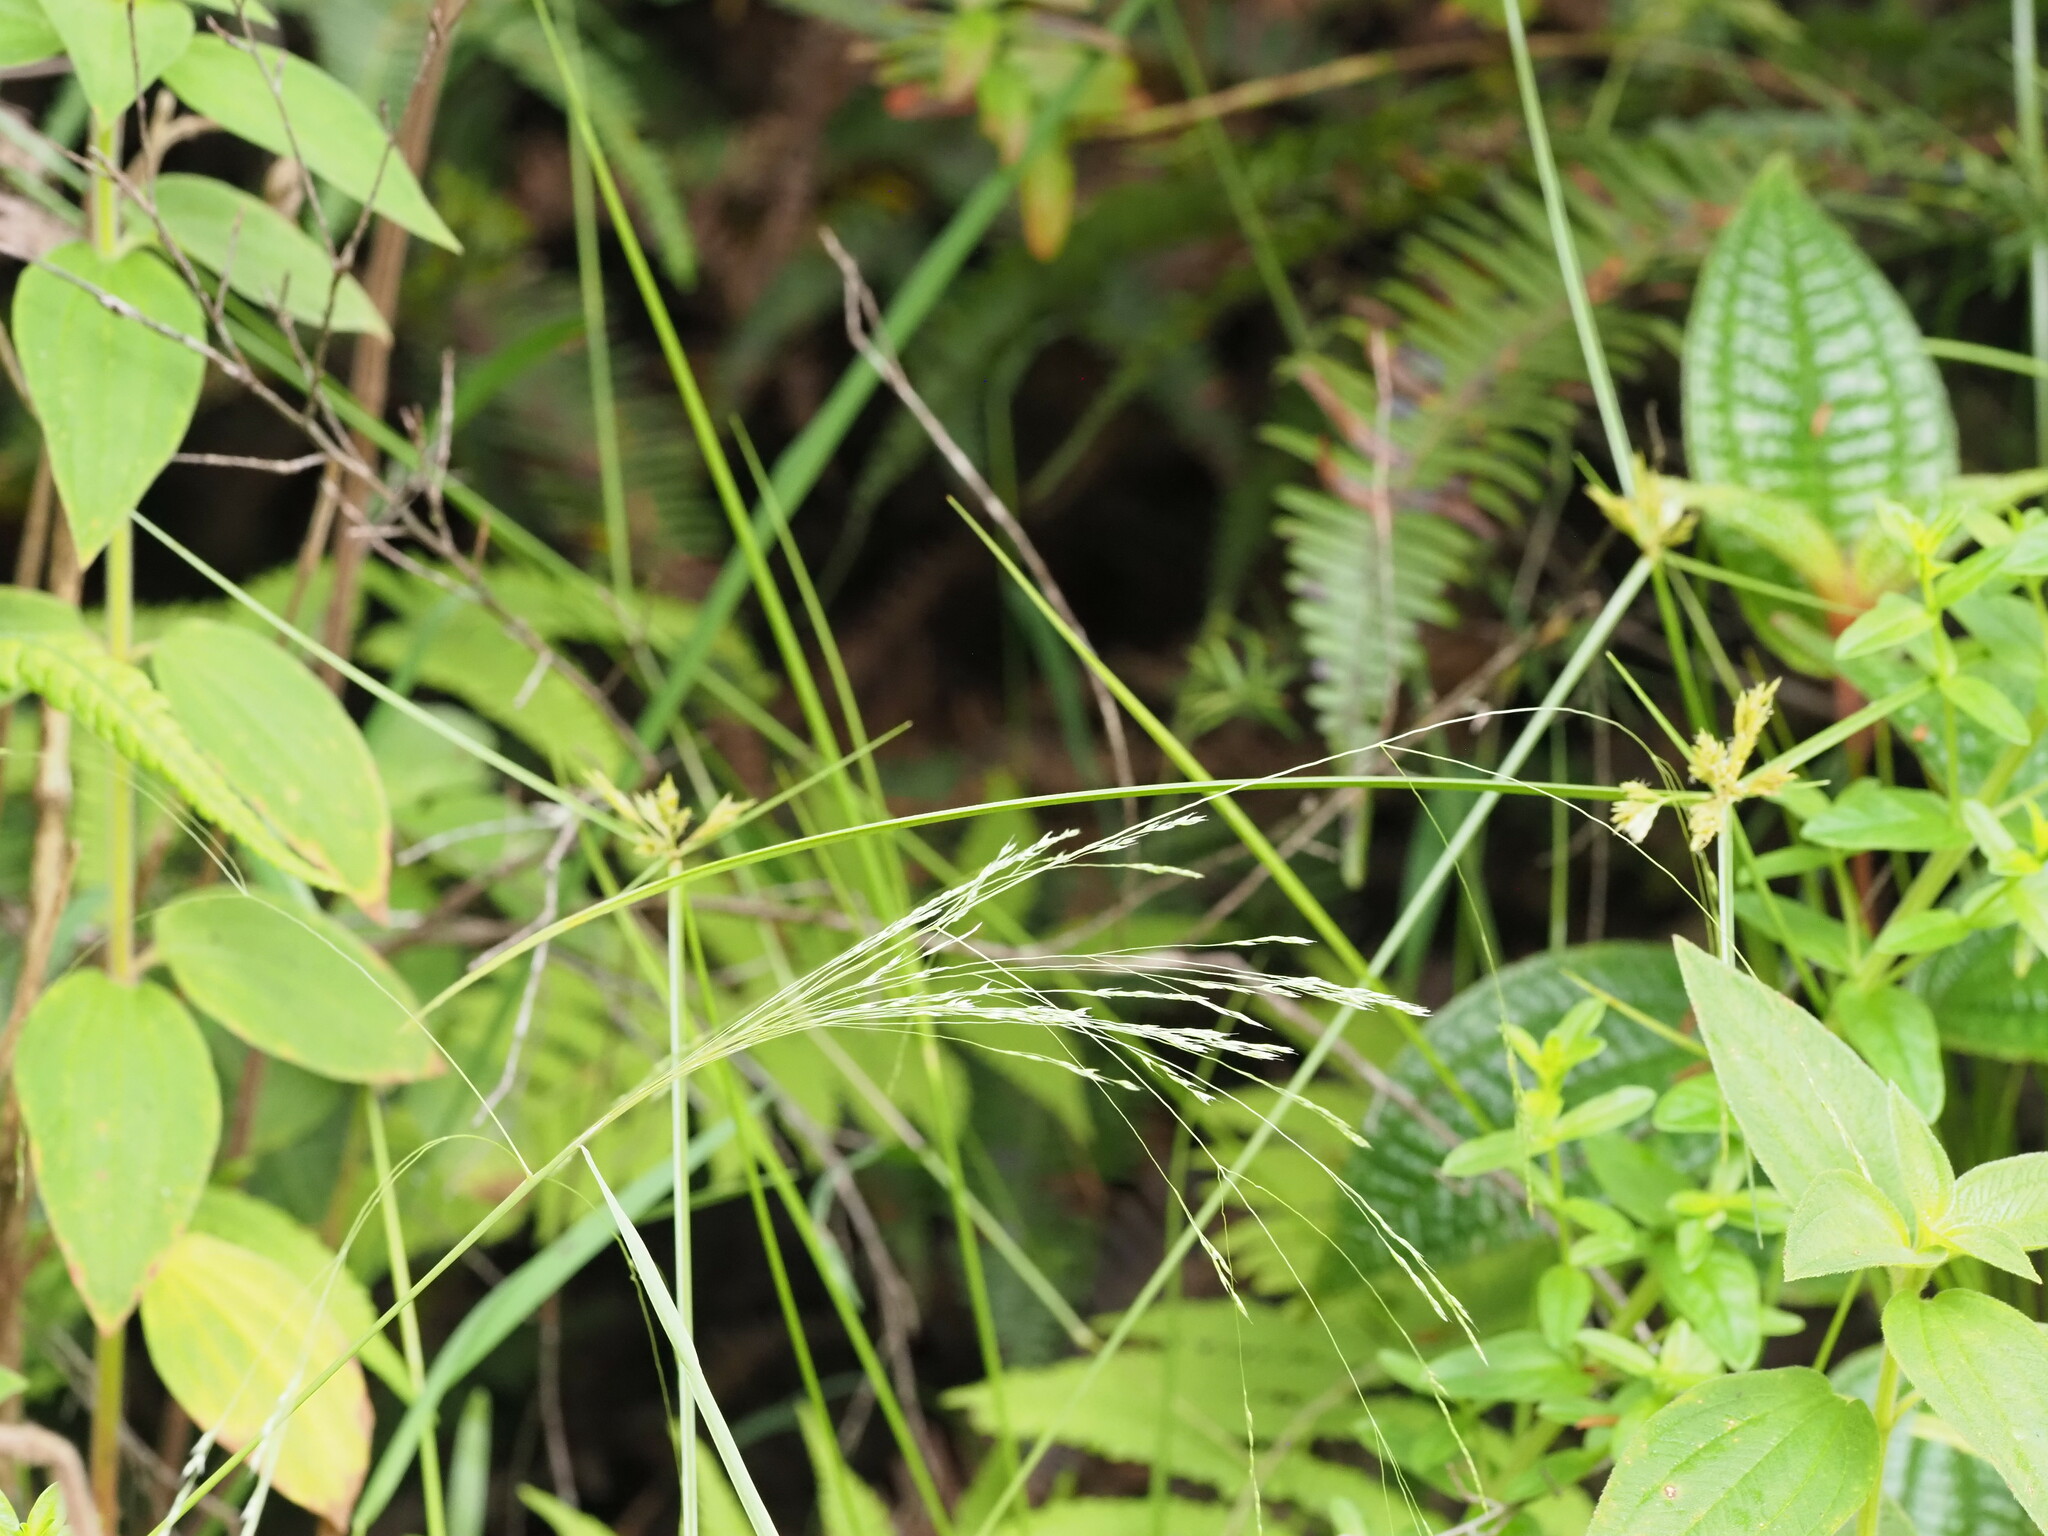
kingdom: Plantae
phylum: Tracheophyta
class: Liliopsida
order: Poales
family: Poaceae
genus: Lachnagrostis
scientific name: Lachnagrostis filiformis
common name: Bentgrass
